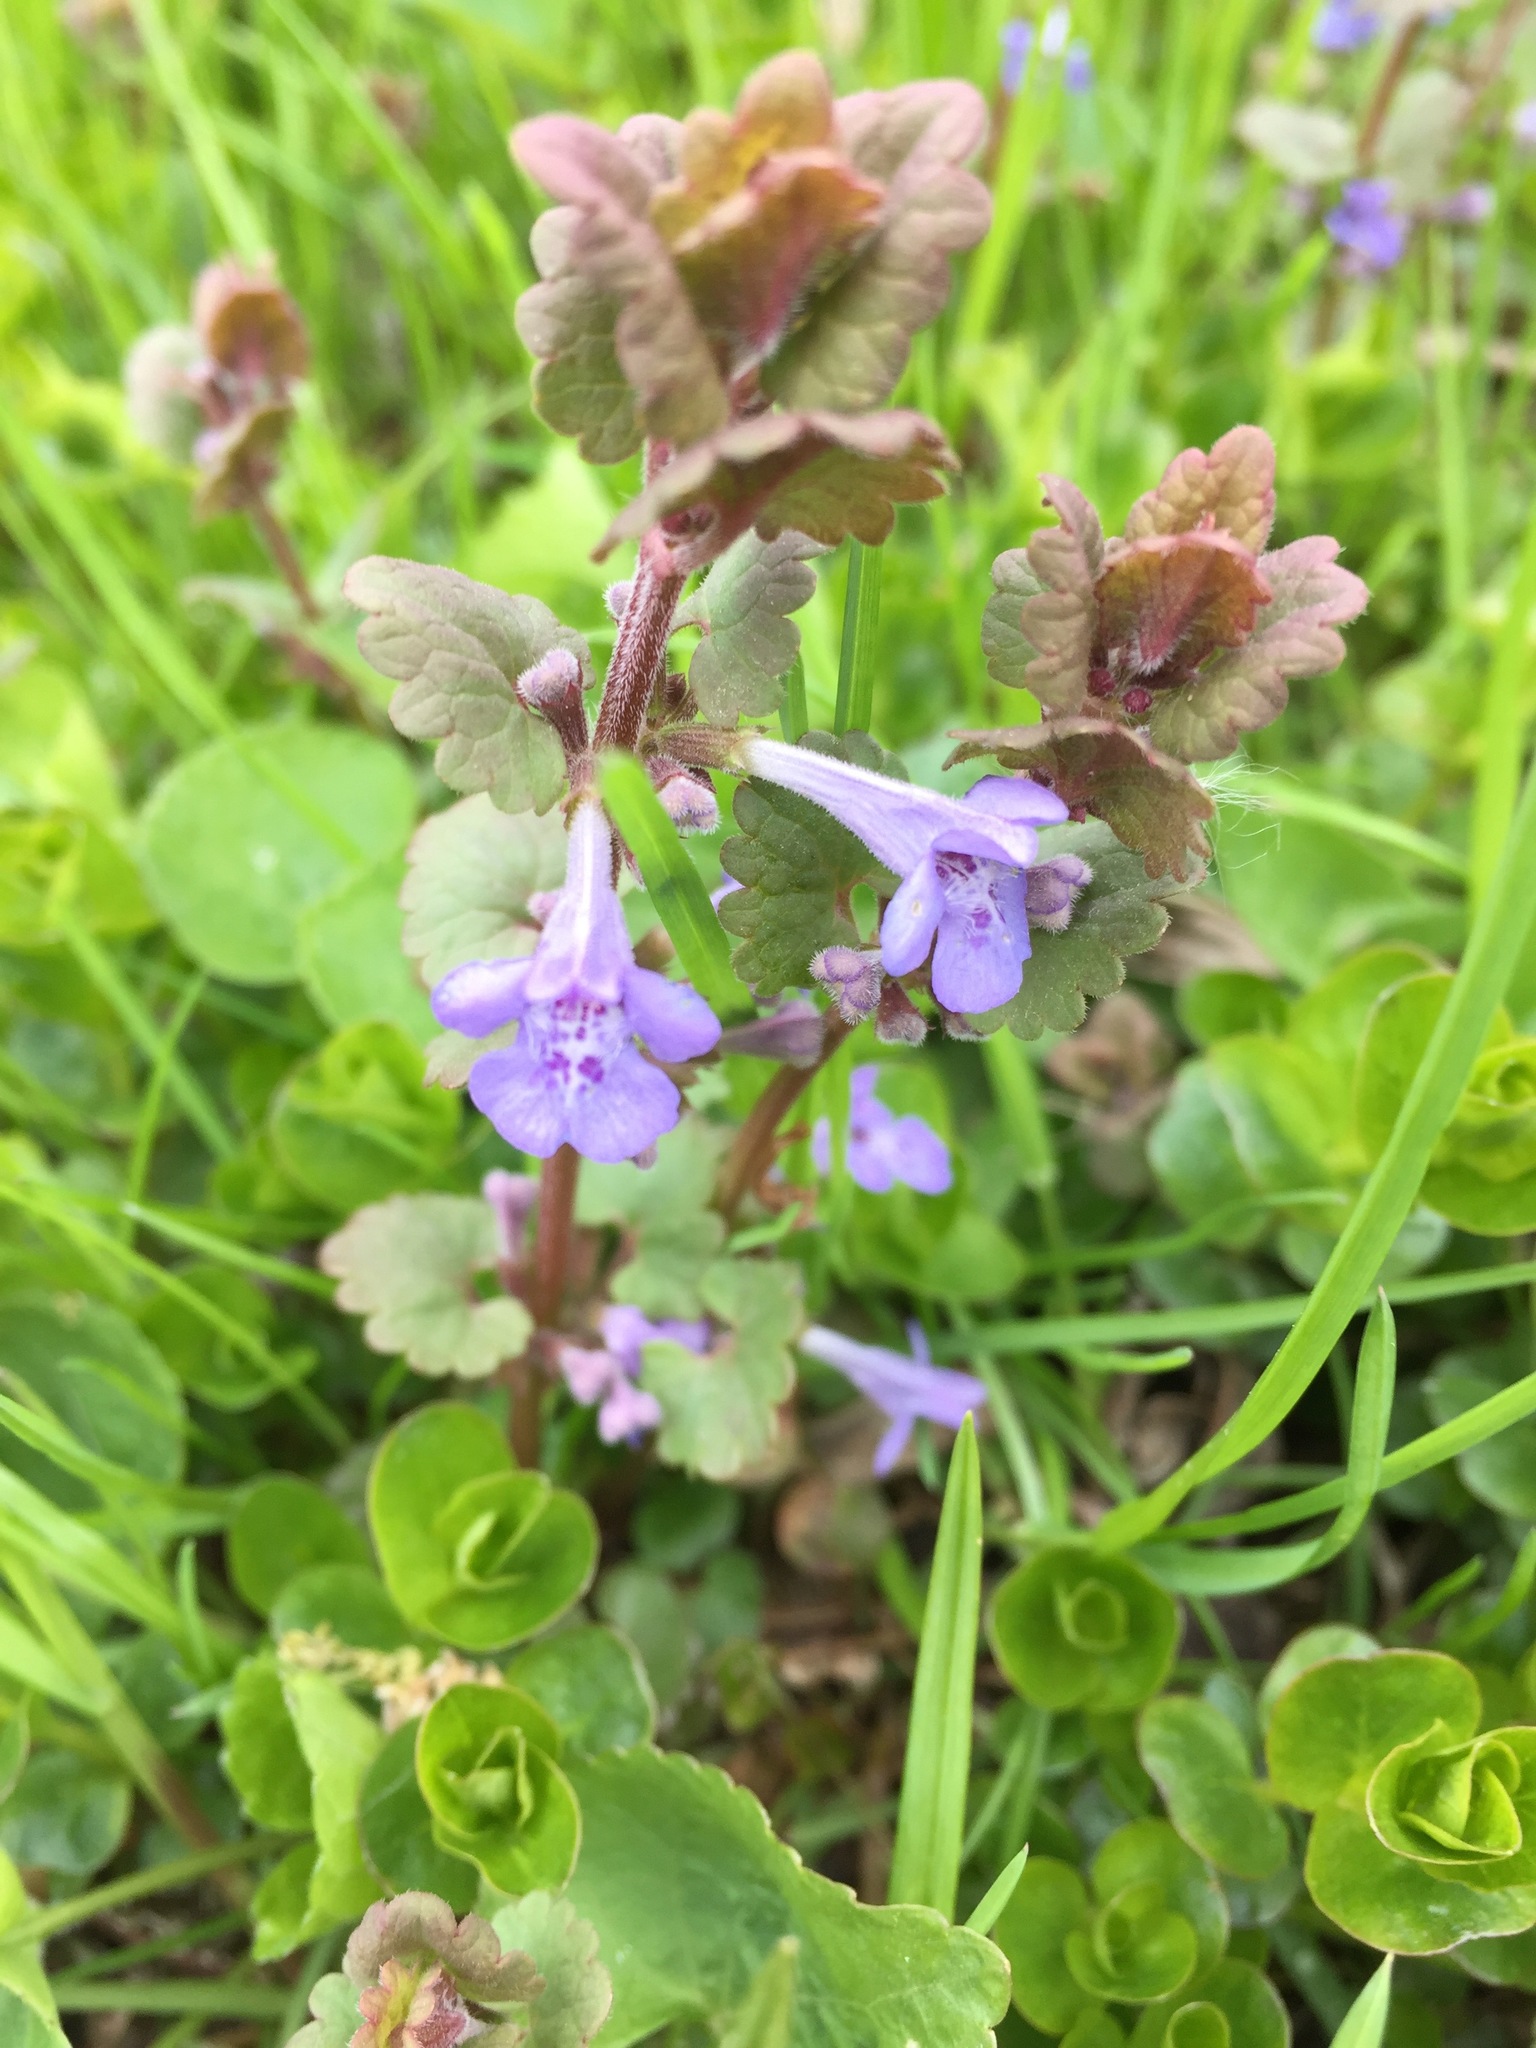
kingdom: Plantae
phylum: Tracheophyta
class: Magnoliopsida
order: Lamiales
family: Lamiaceae
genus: Glechoma
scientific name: Glechoma hederacea
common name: Ground ivy
